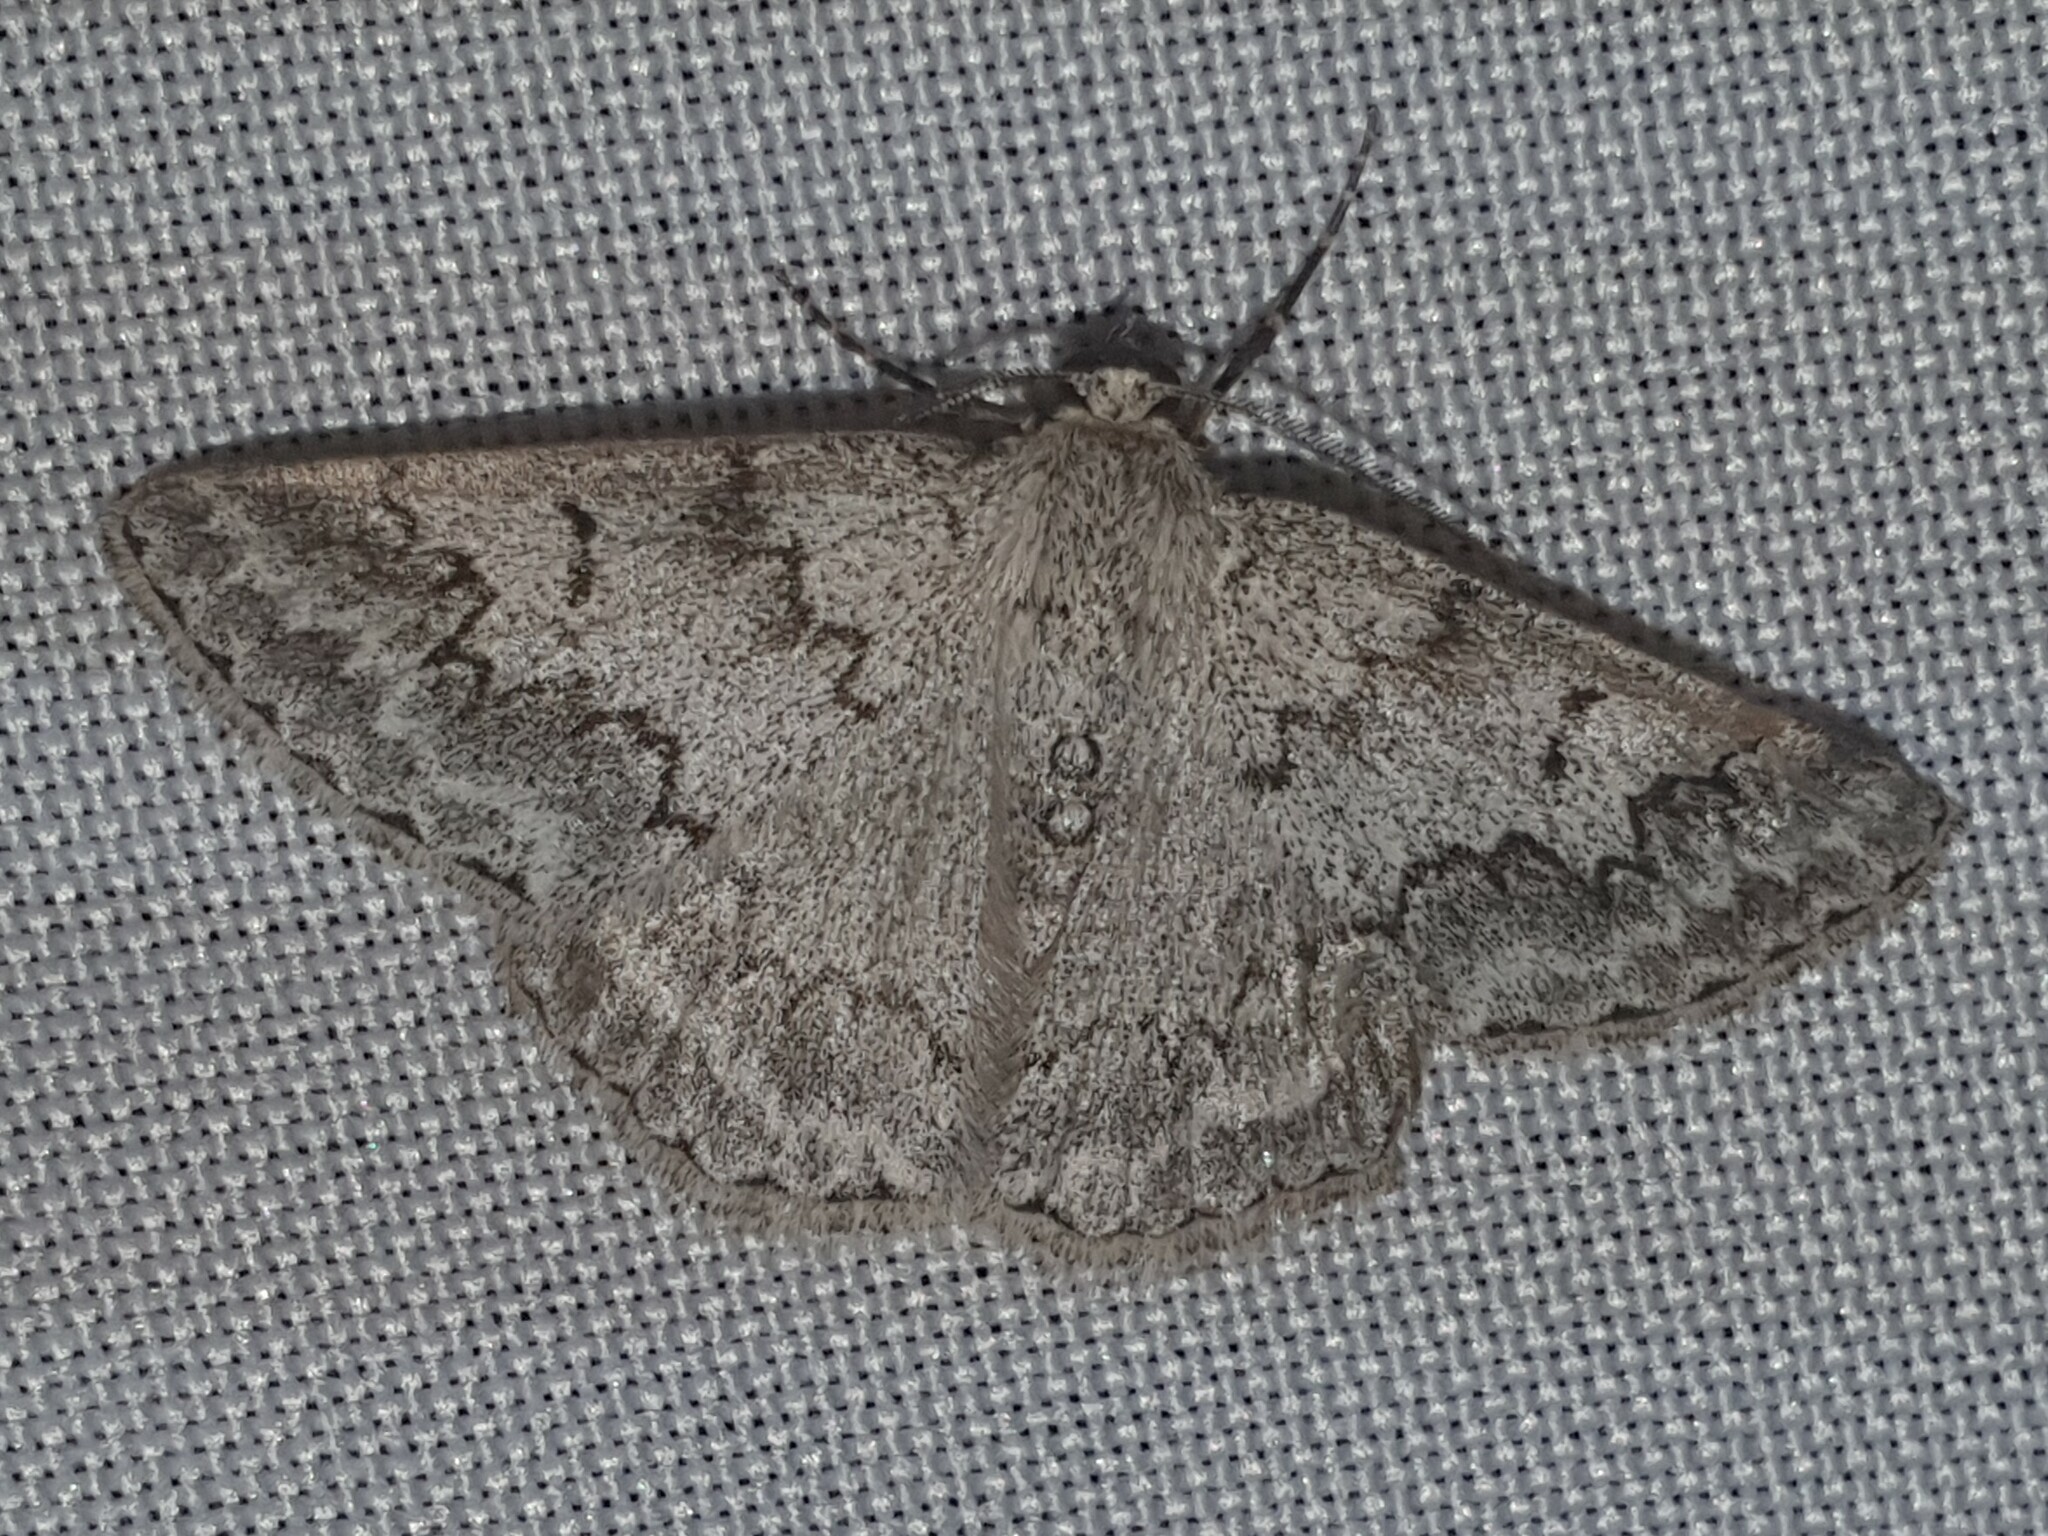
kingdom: Animalia
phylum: Arthropoda
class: Insecta
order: Lepidoptera
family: Geometridae
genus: Pseudoterpna
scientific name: Pseudoterpna coronillaria
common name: Jersey emerald
